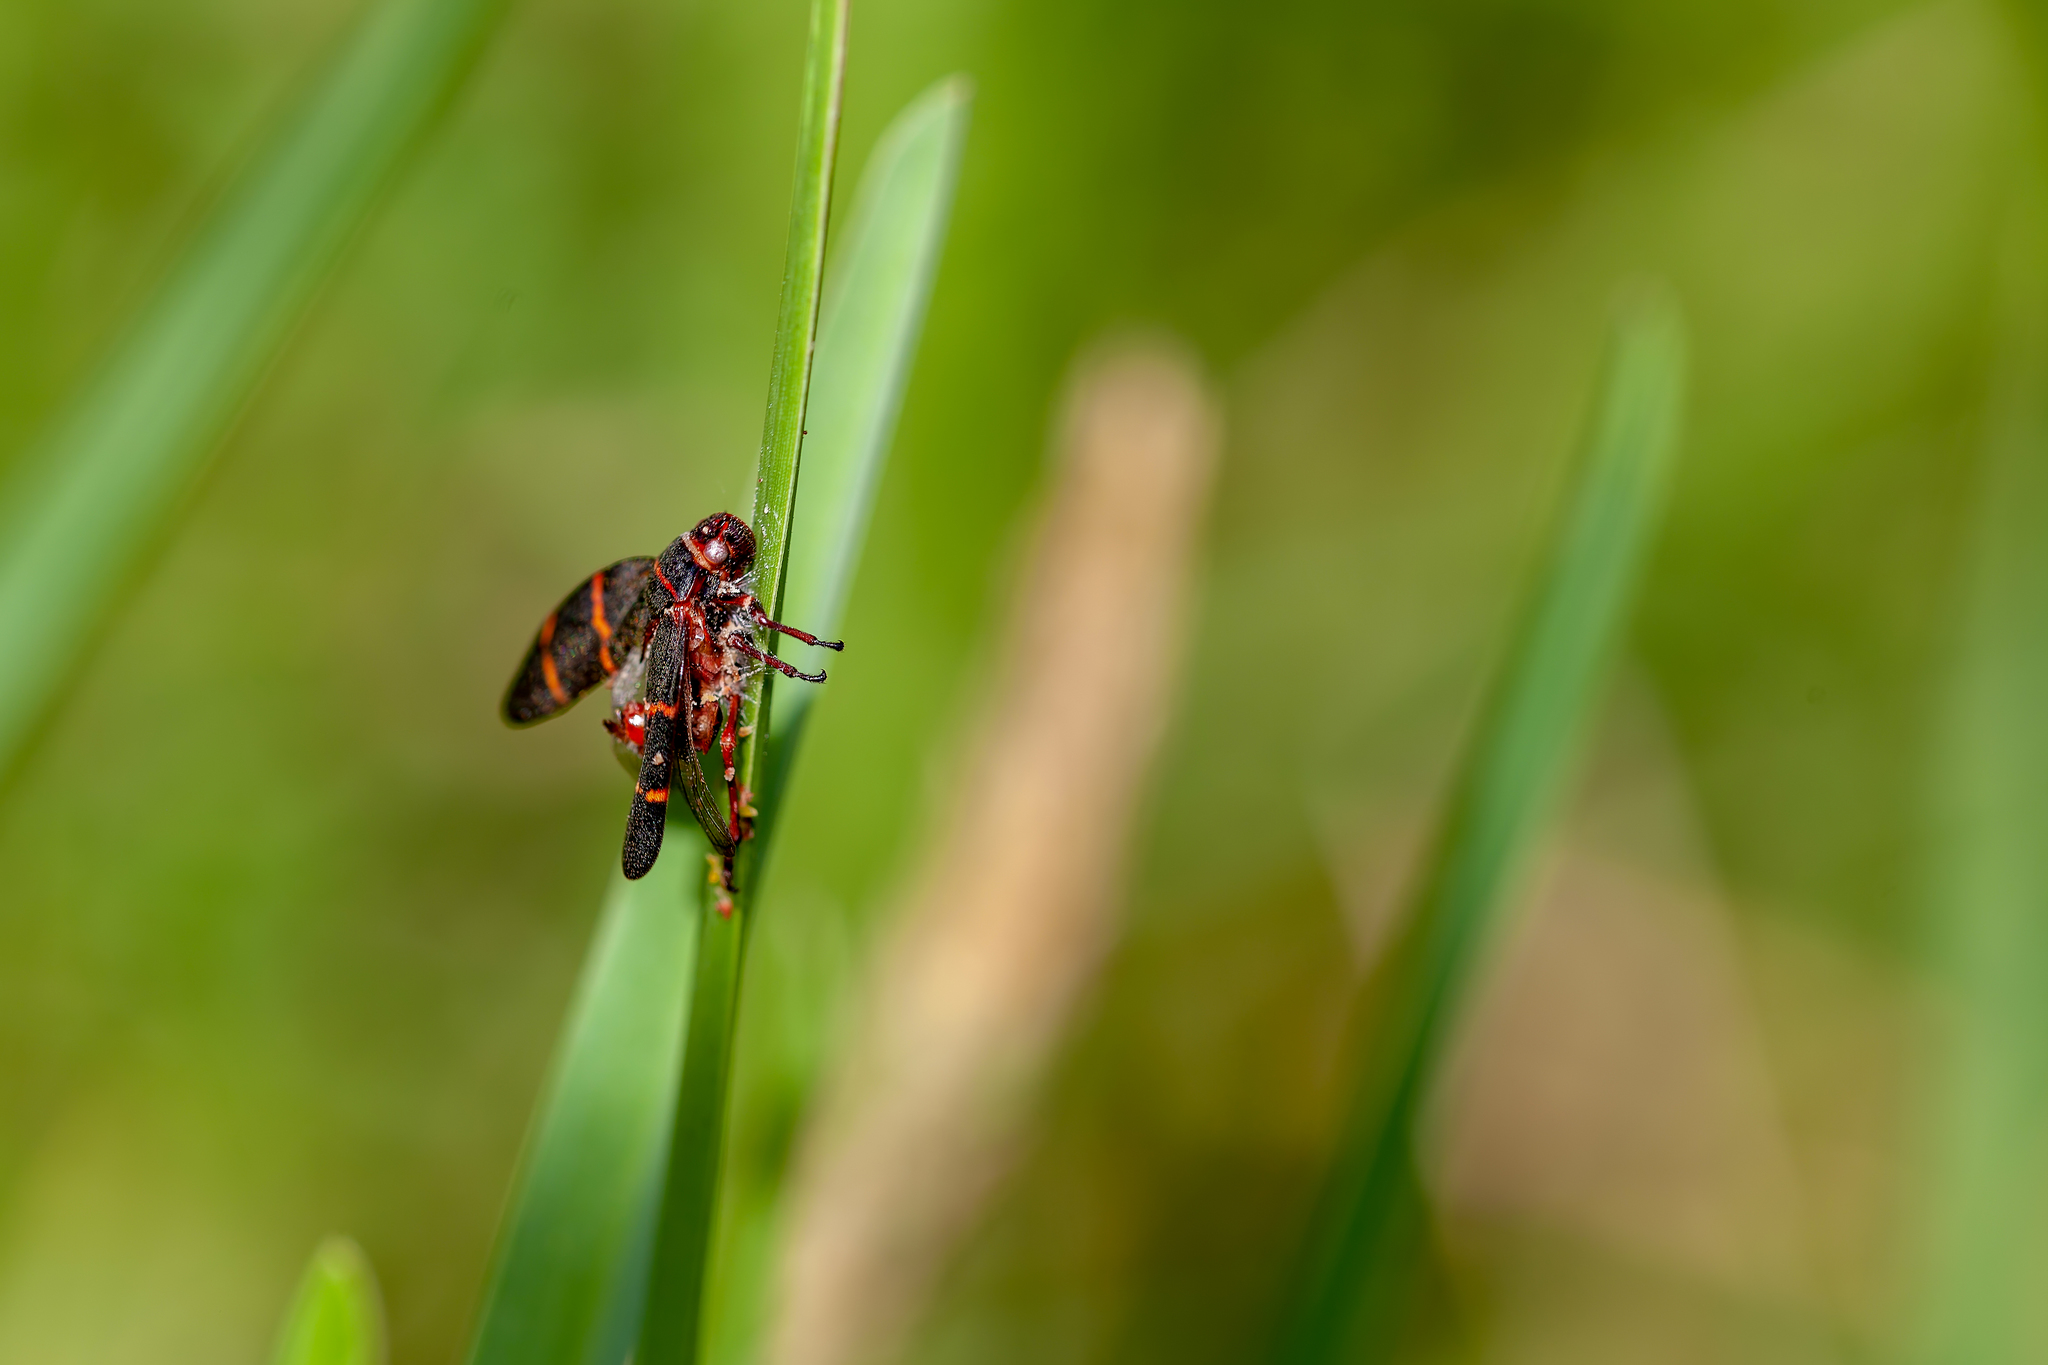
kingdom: Animalia
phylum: Arthropoda
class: Insecta
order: Hemiptera
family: Cercopidae
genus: Prosapia
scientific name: Prosapia bicincta
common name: Twolined spittlebug
